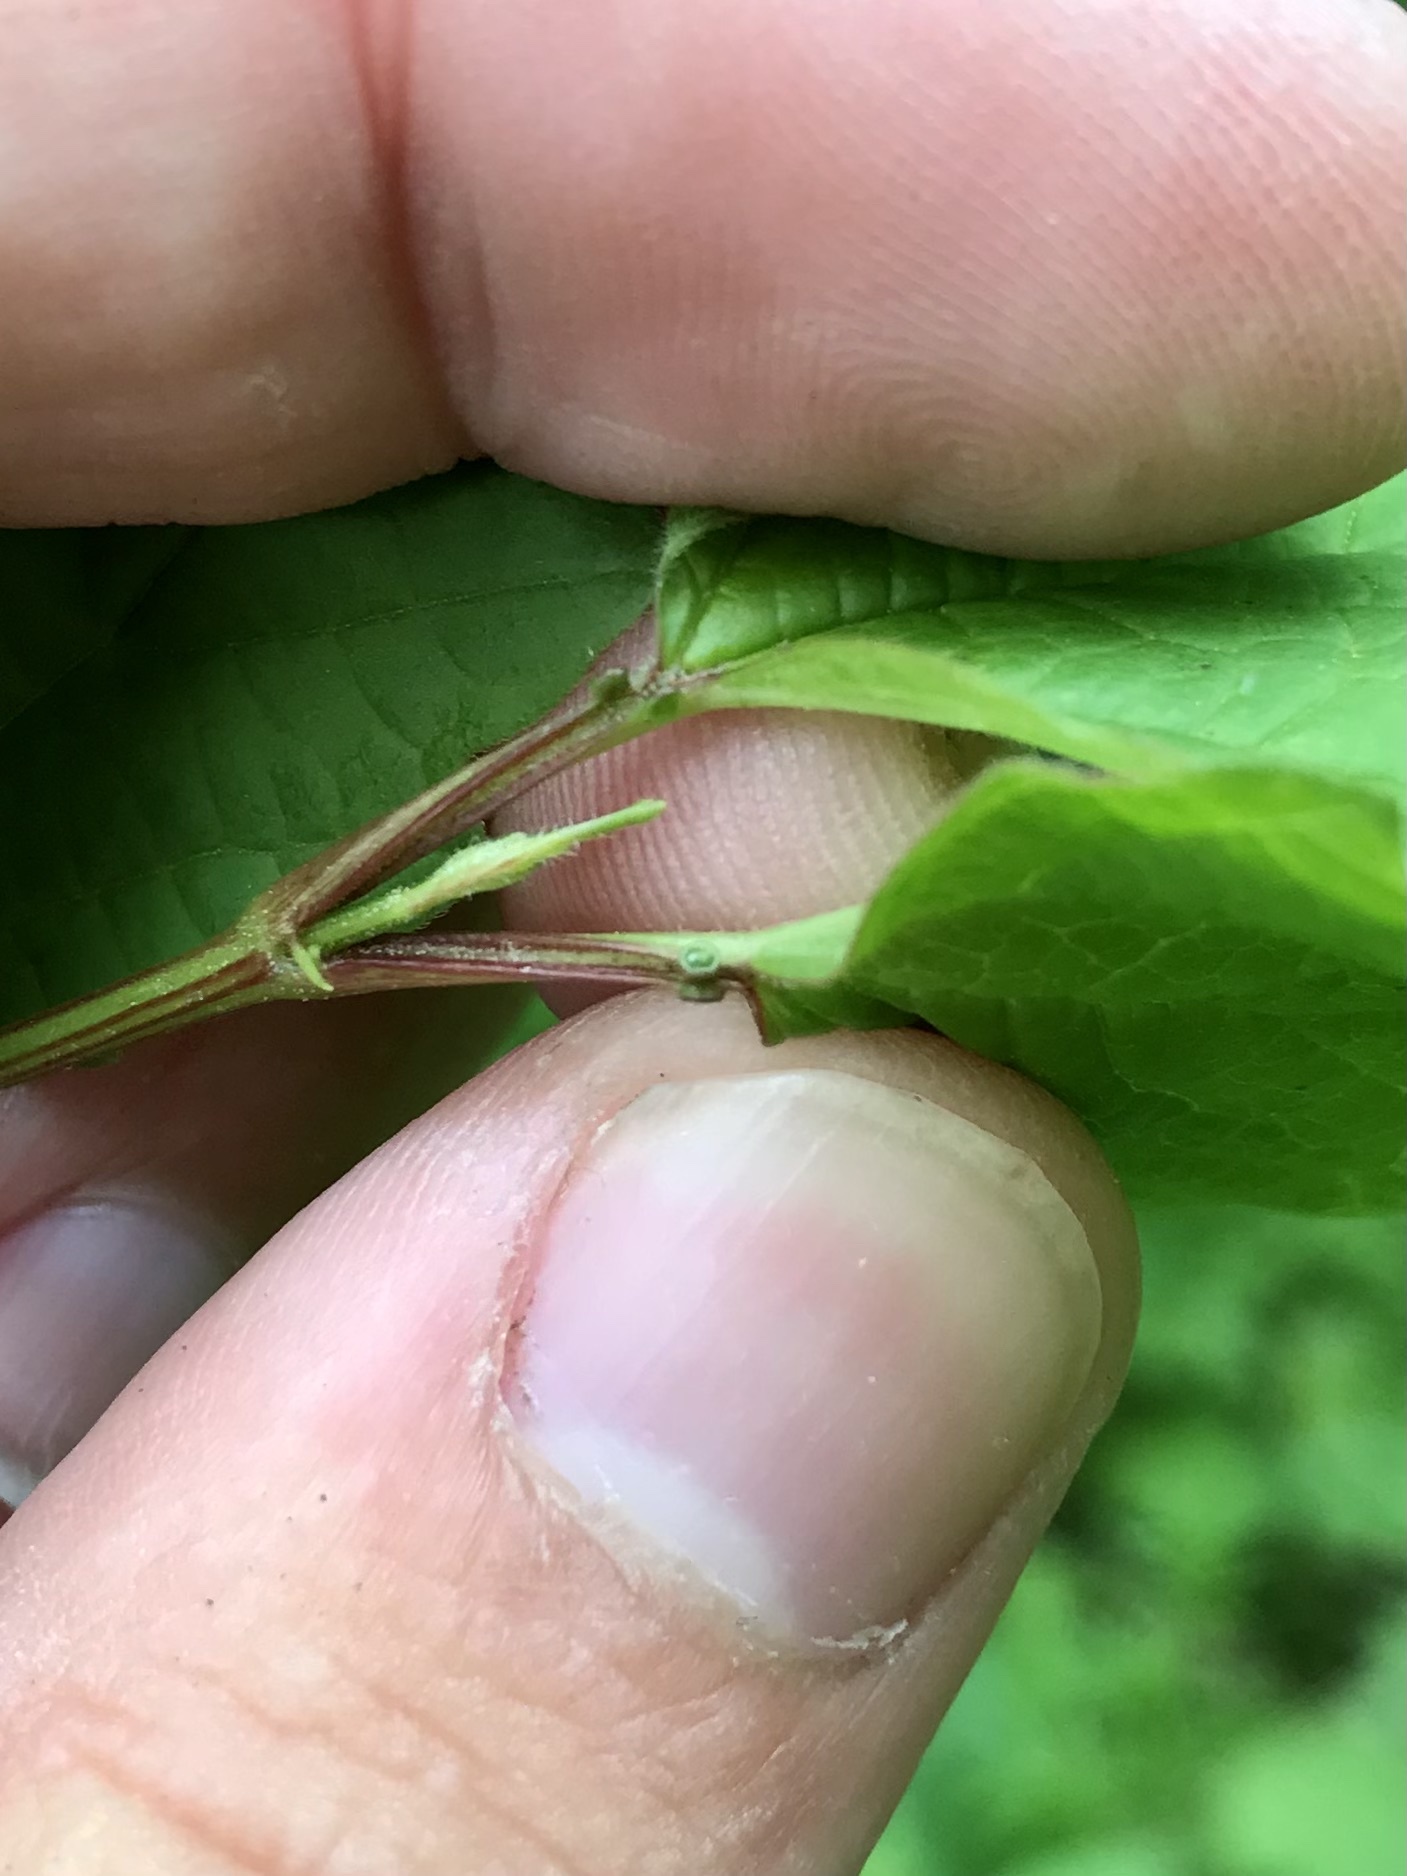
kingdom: Plantae
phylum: Tracheophyta
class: Magnoliopsida
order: Dipsacales
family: Viburnaceae
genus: Viburnum
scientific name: Viburnum opulus
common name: Guelder-rose
